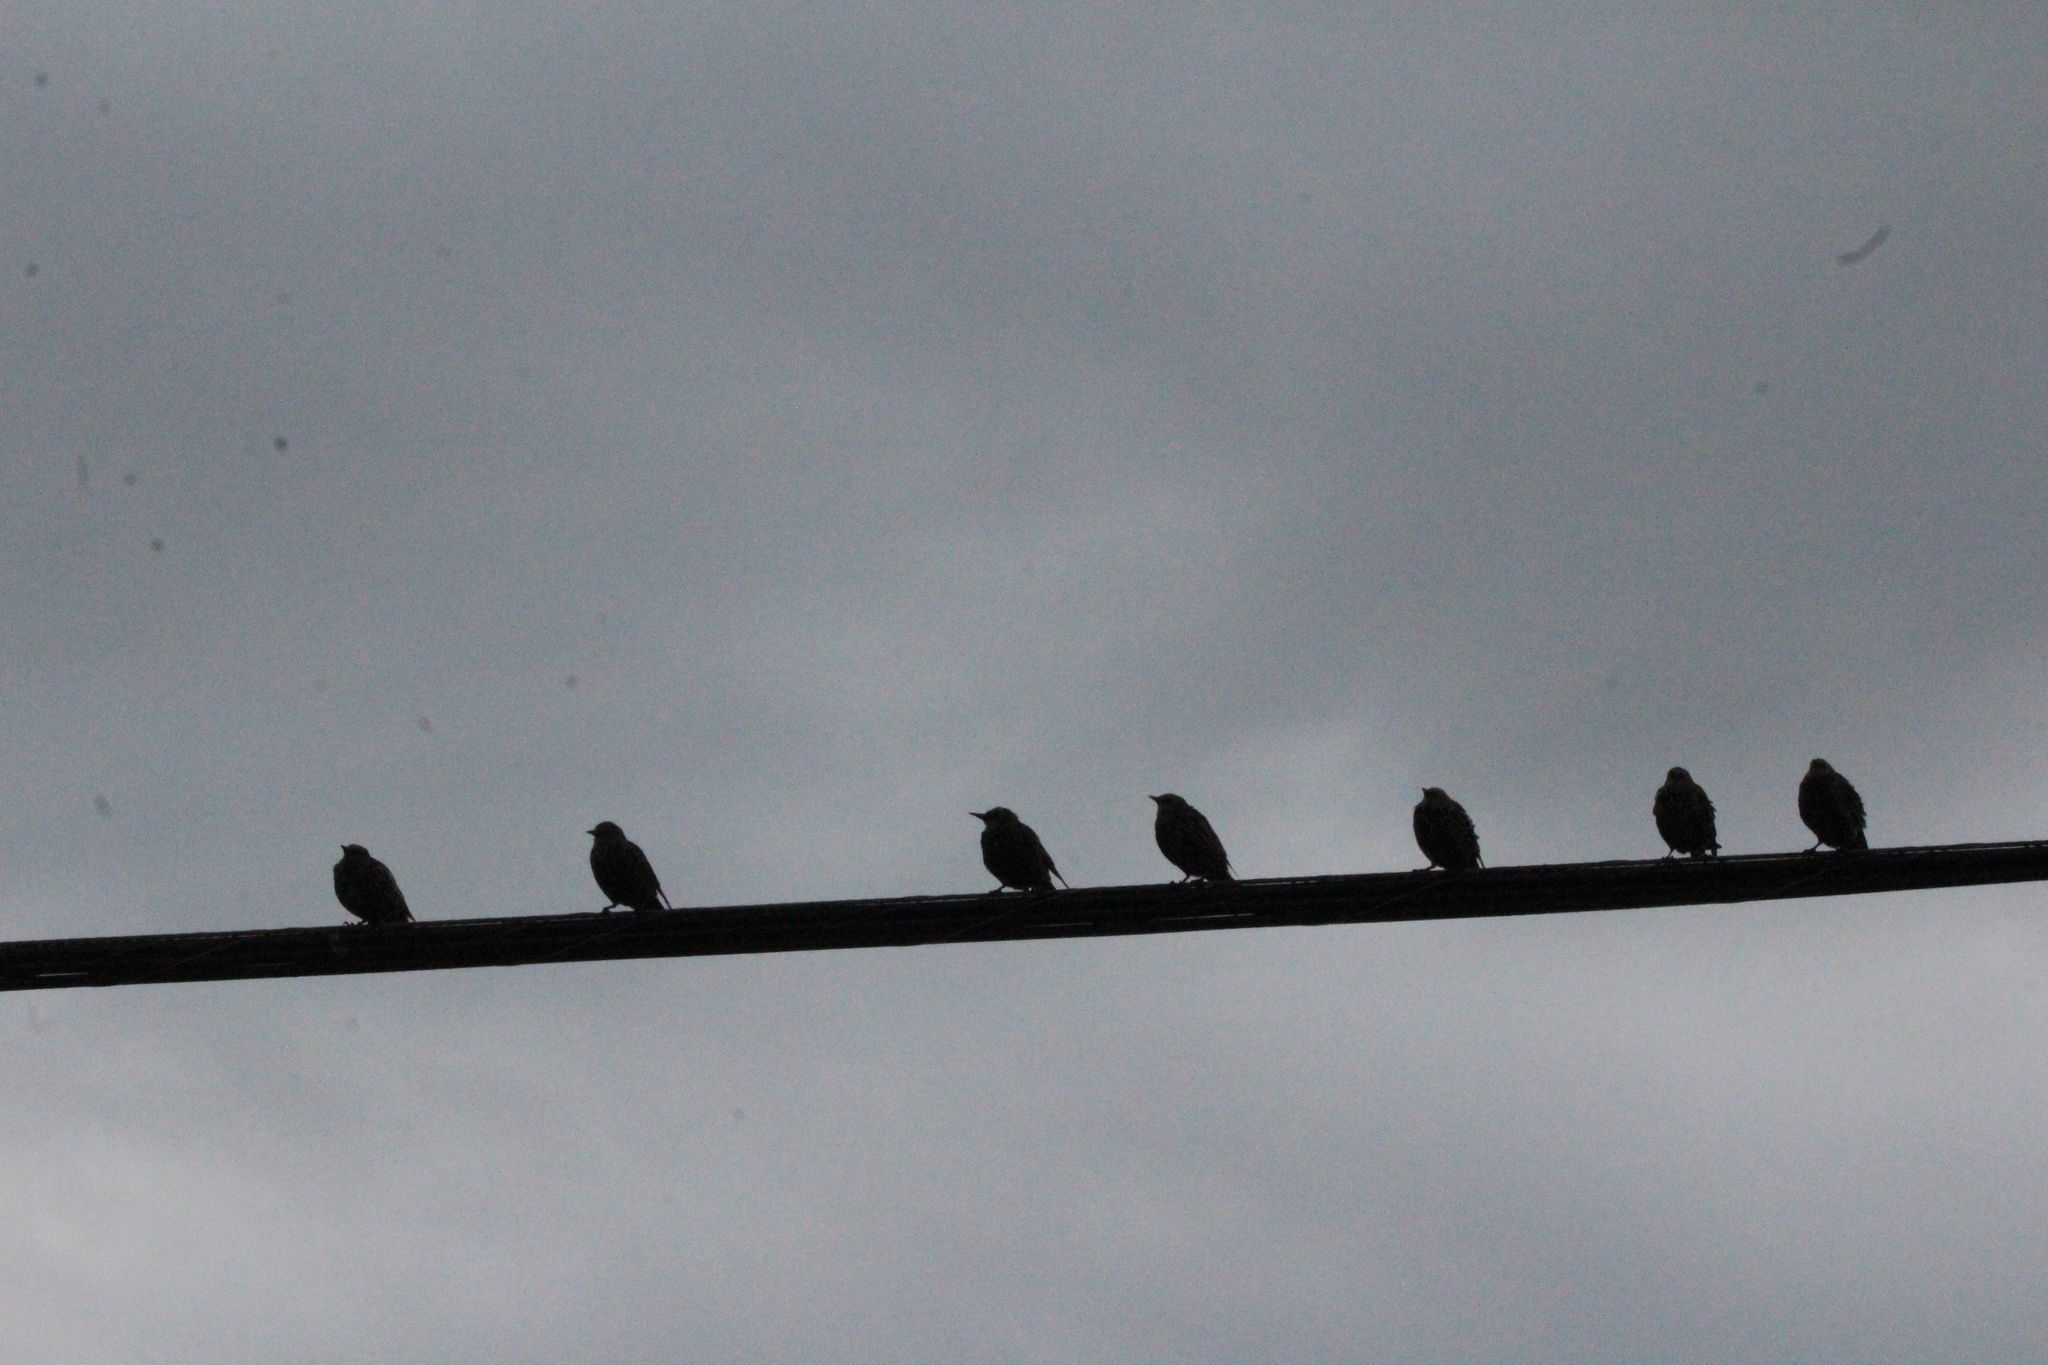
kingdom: Animalia
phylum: Chordata
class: Aves
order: Passeriformes
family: Sturnidae
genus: Sturnus
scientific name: Sturnus vulgaris
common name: Common starling
